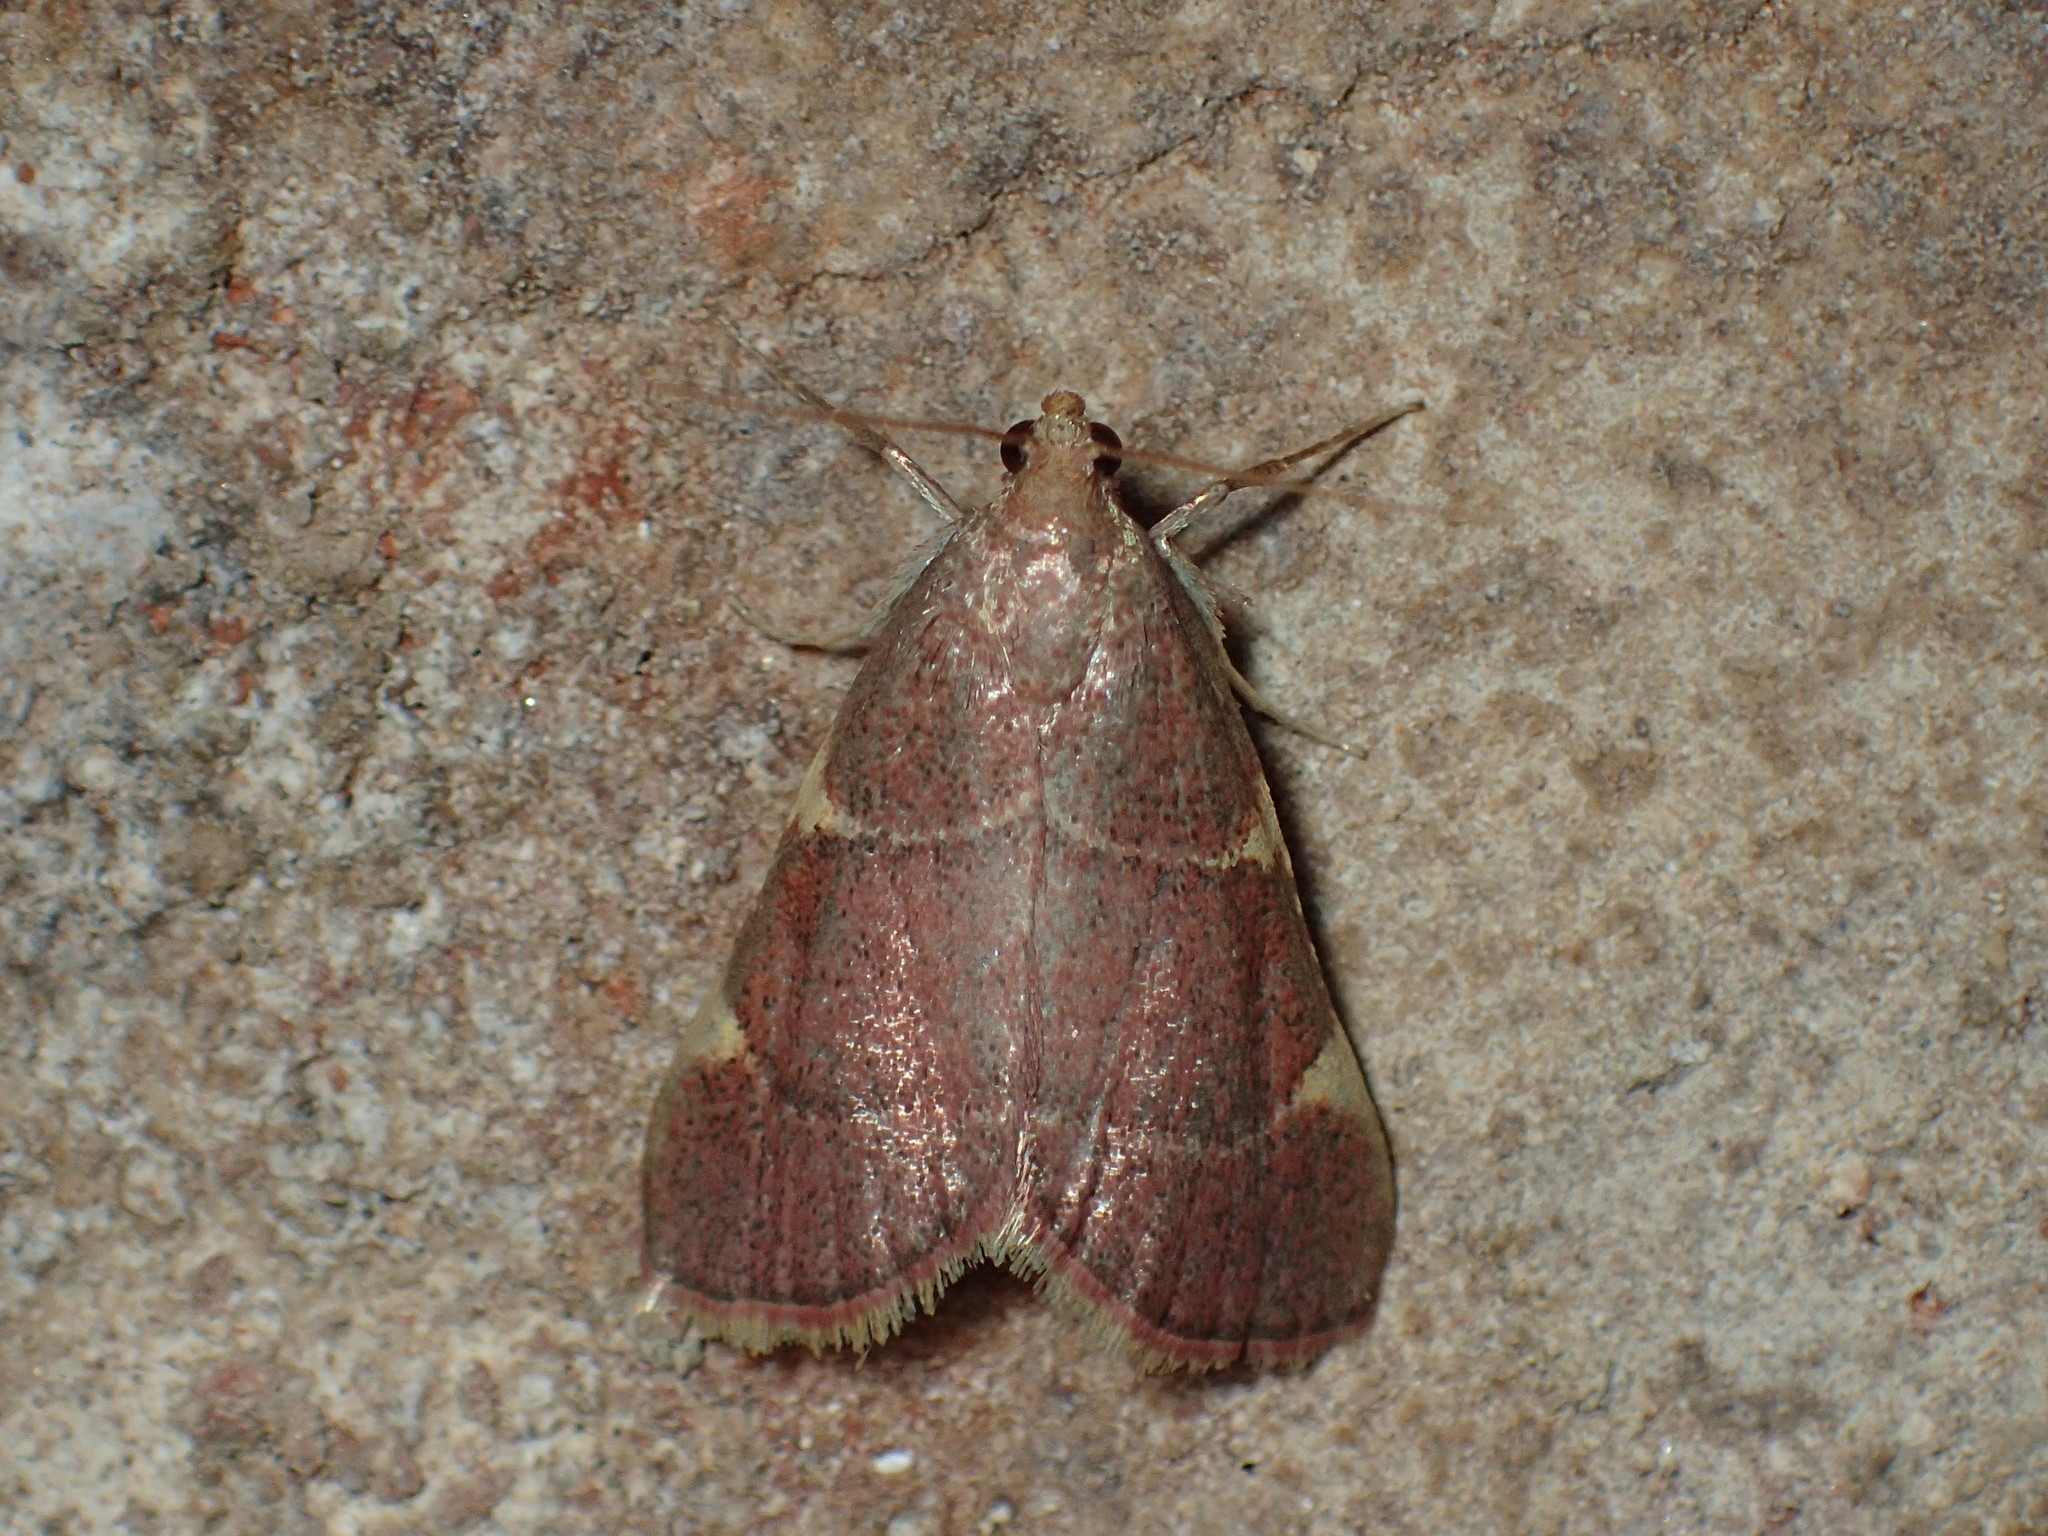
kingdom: Animalia
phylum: Arthropoda
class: Insecta
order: Lepidoptera
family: Pyralidae
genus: Hypsopygia
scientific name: Hypsopygia olinalis
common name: Yellow-fringed dolichomia moth
